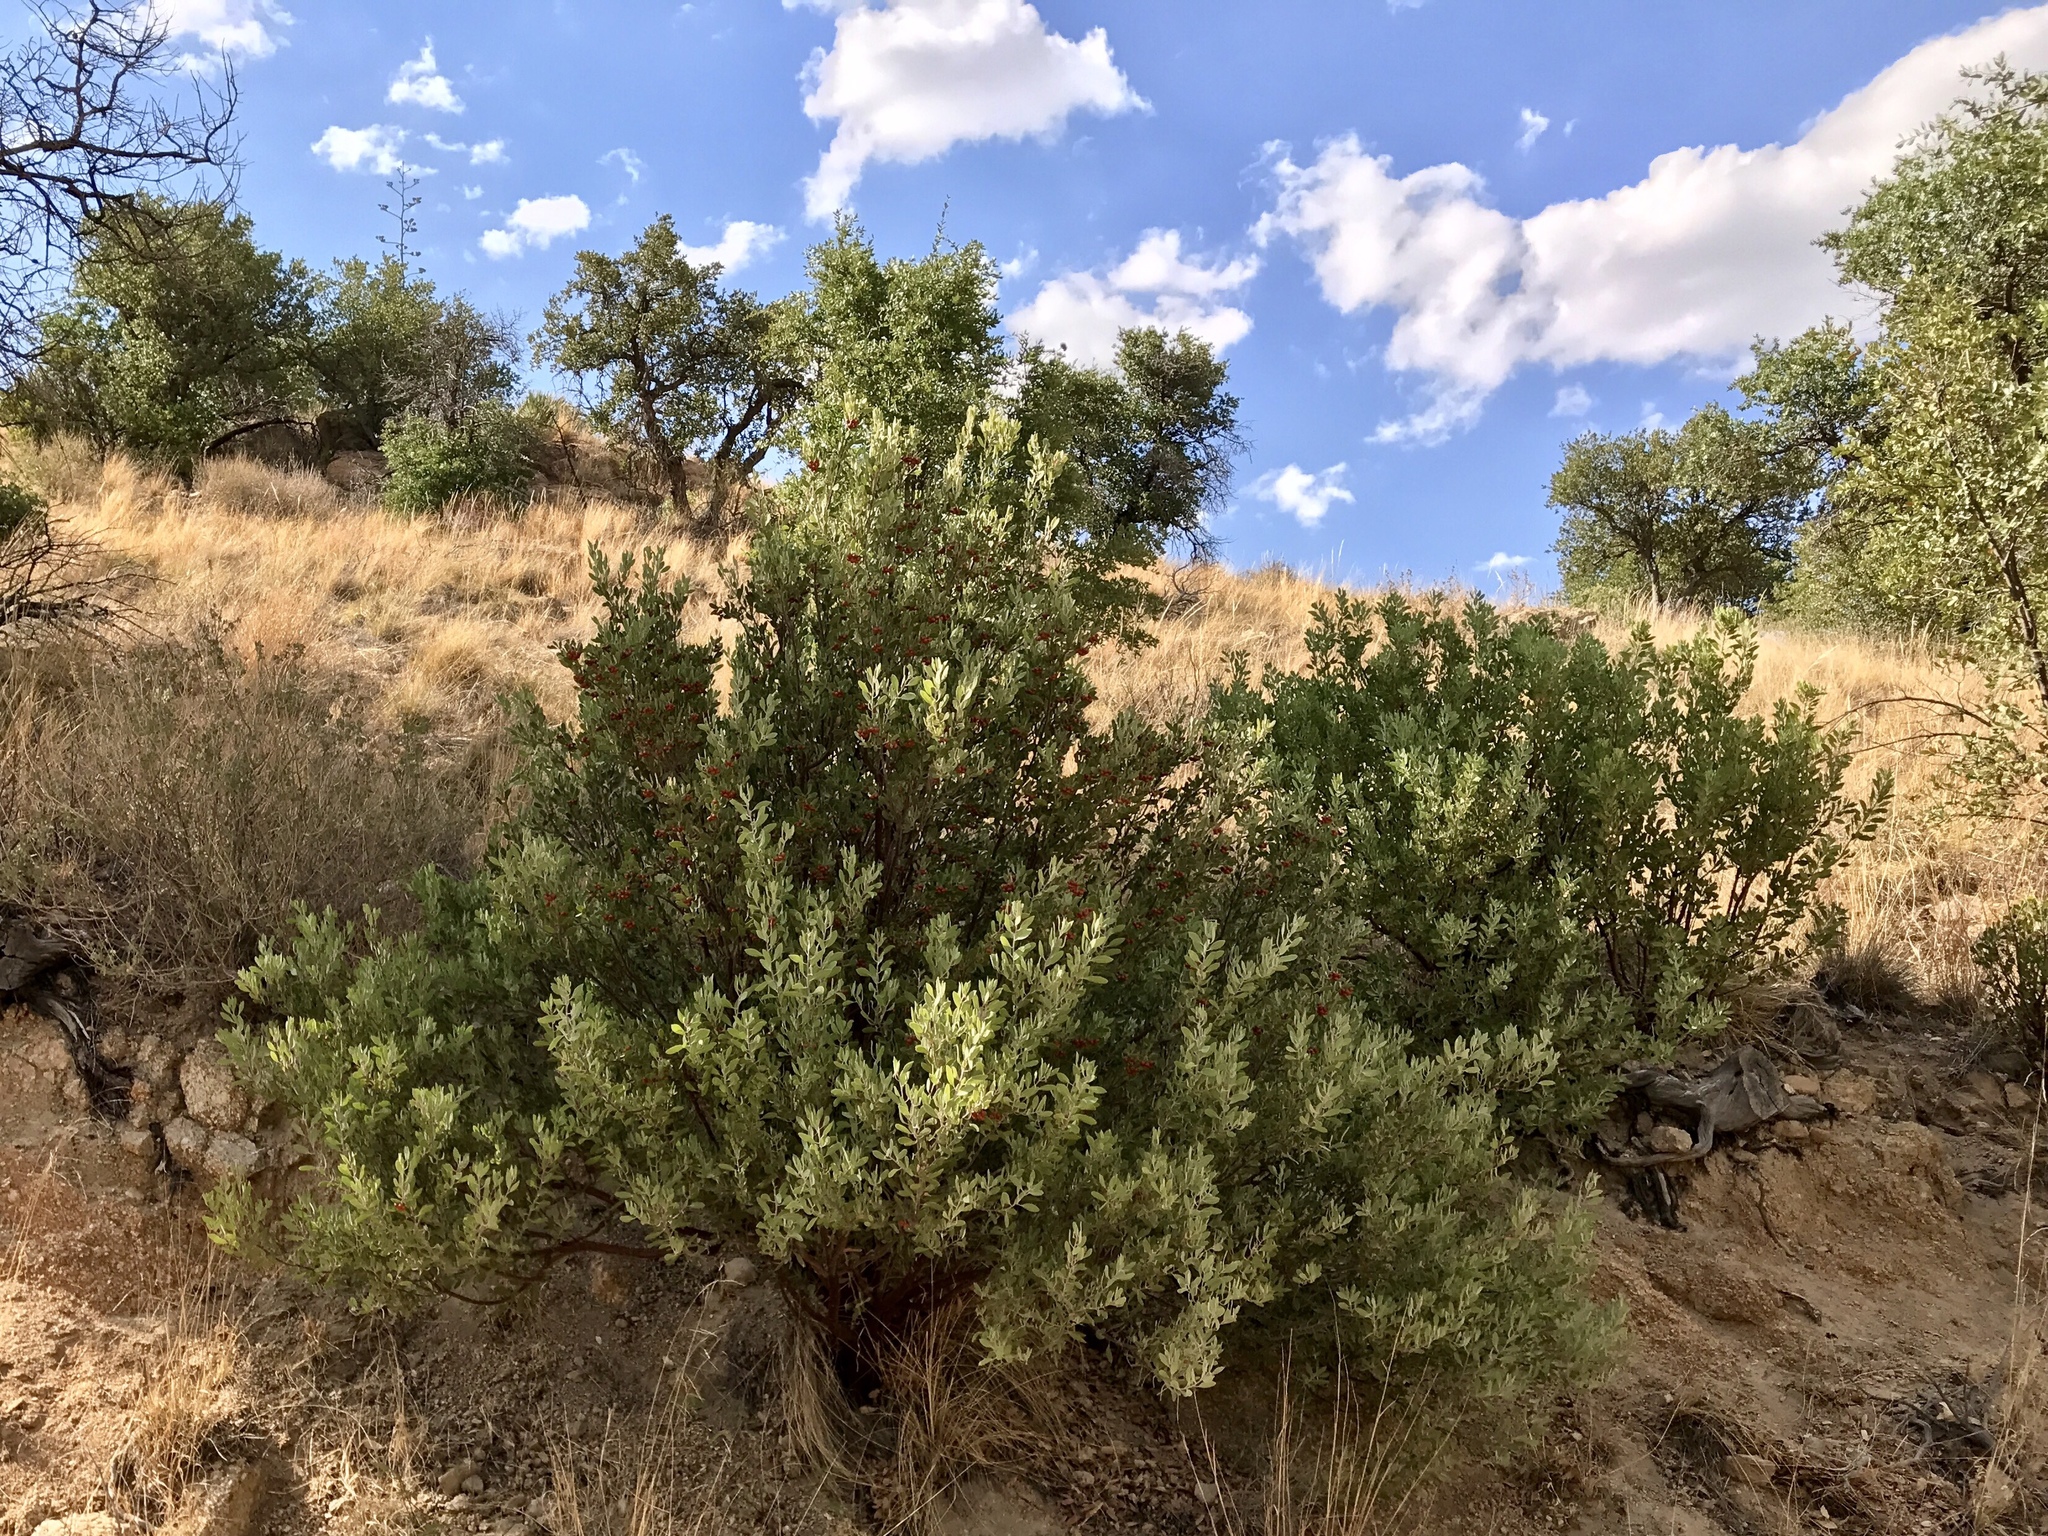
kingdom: Plantae
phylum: Tracheophyta
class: Magnoliopsida
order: Ericales
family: Ericaceae
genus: Arctostaphylos
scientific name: Arctostaphylos pungens
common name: Mexican manzanita
